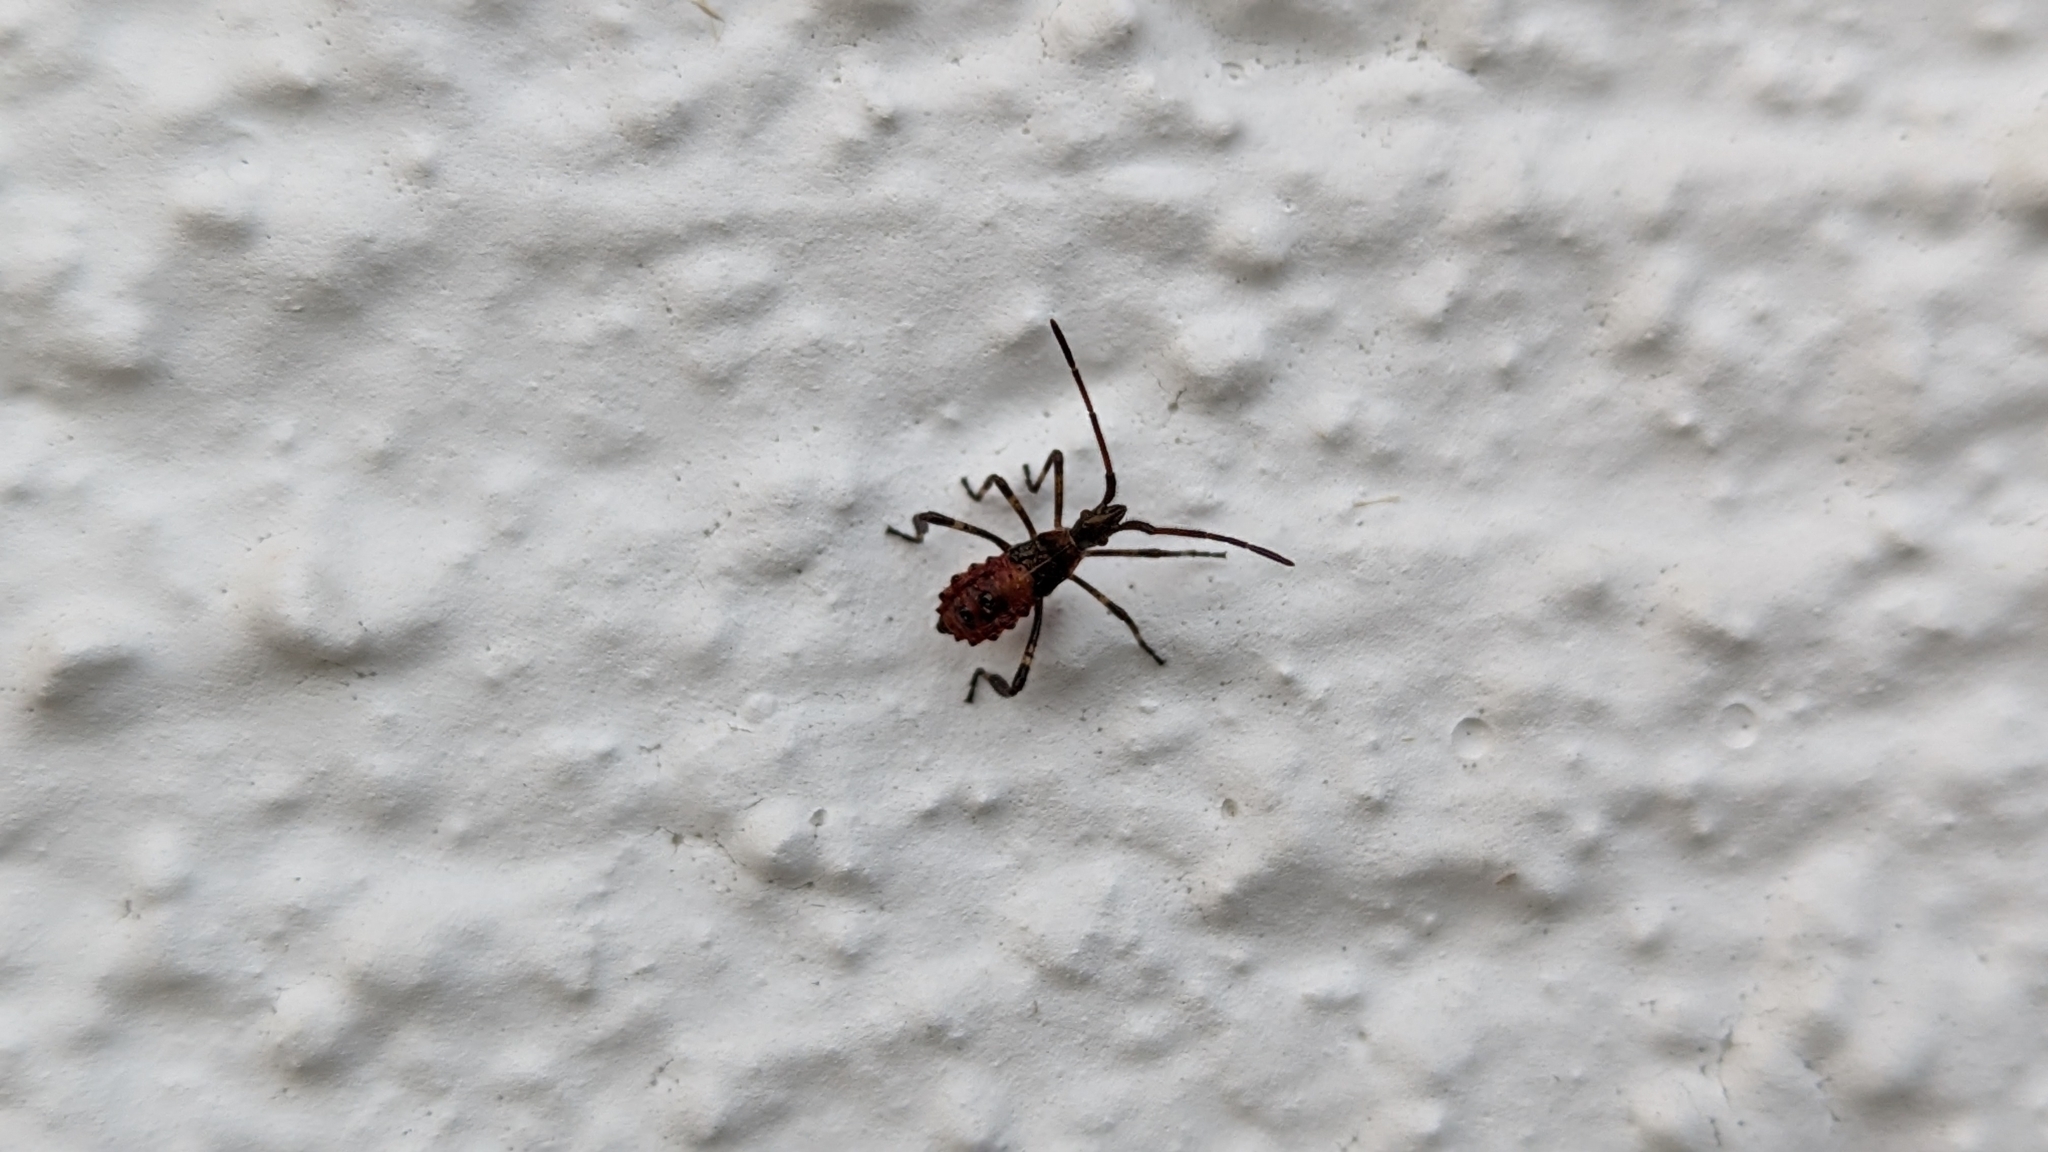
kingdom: Animalia
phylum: Arthropoda
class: Insecta
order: Hemiptera
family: Coreidae
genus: Leptoglossus
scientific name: Leptoglossus occidentalis
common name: Western conifer-seed bug
